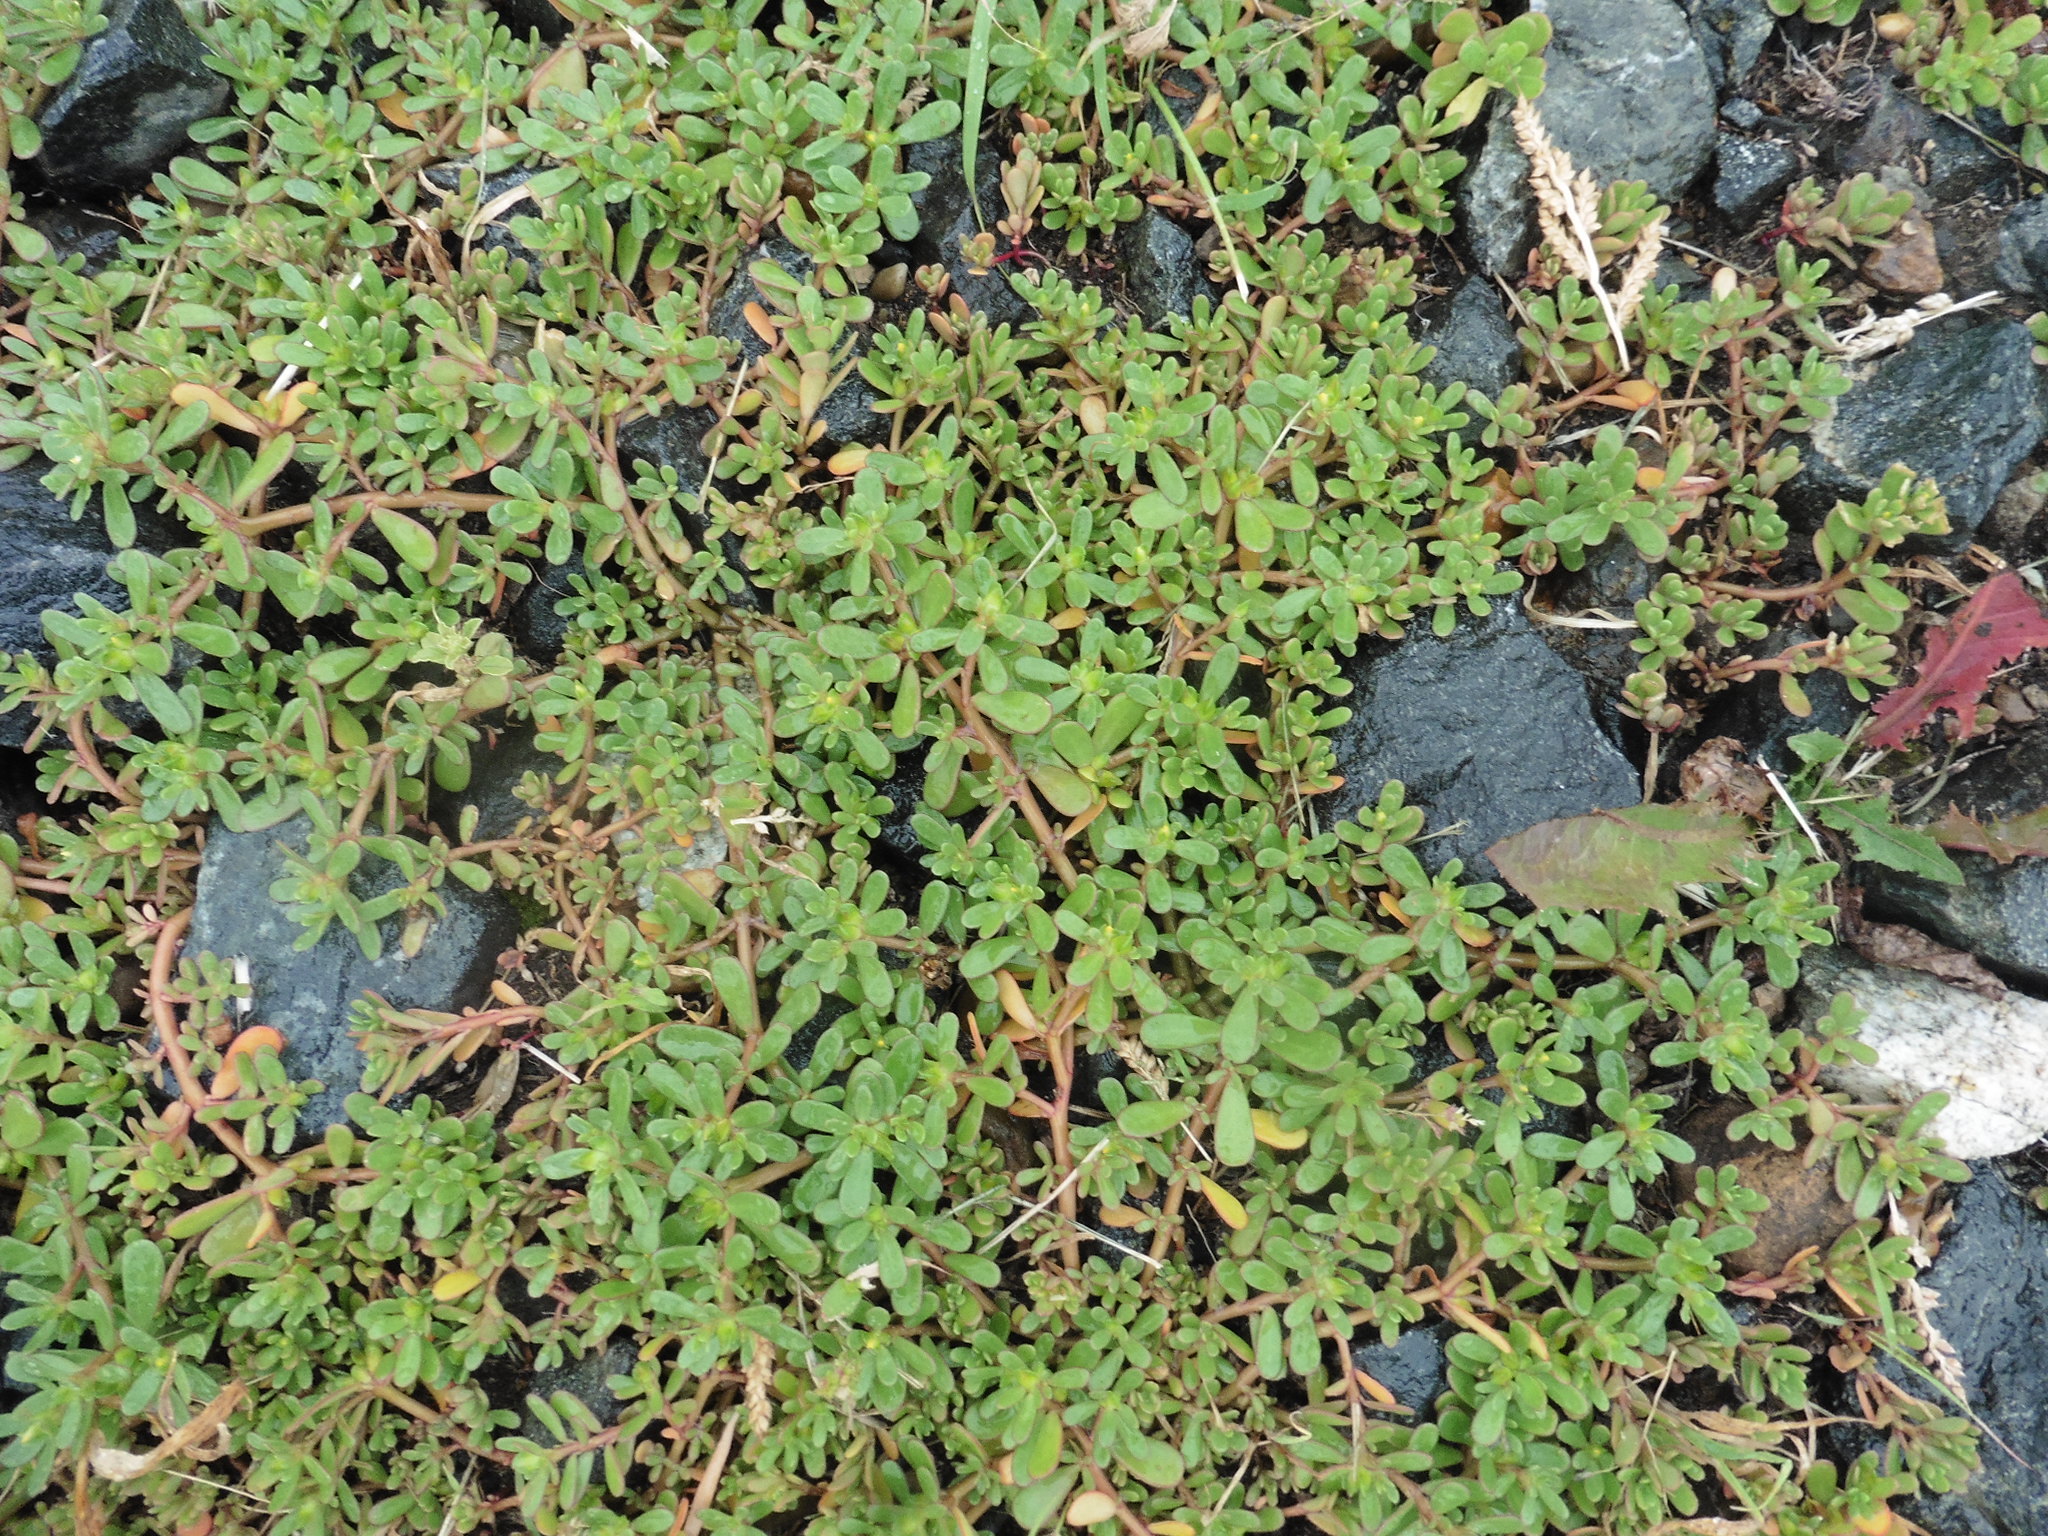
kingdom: Plantae
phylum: Tracheophyta
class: Magnoliopsida
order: Caryophyllales
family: Portulacaceae
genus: Portulaca
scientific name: Portulaca oleracea
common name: Common purslane
